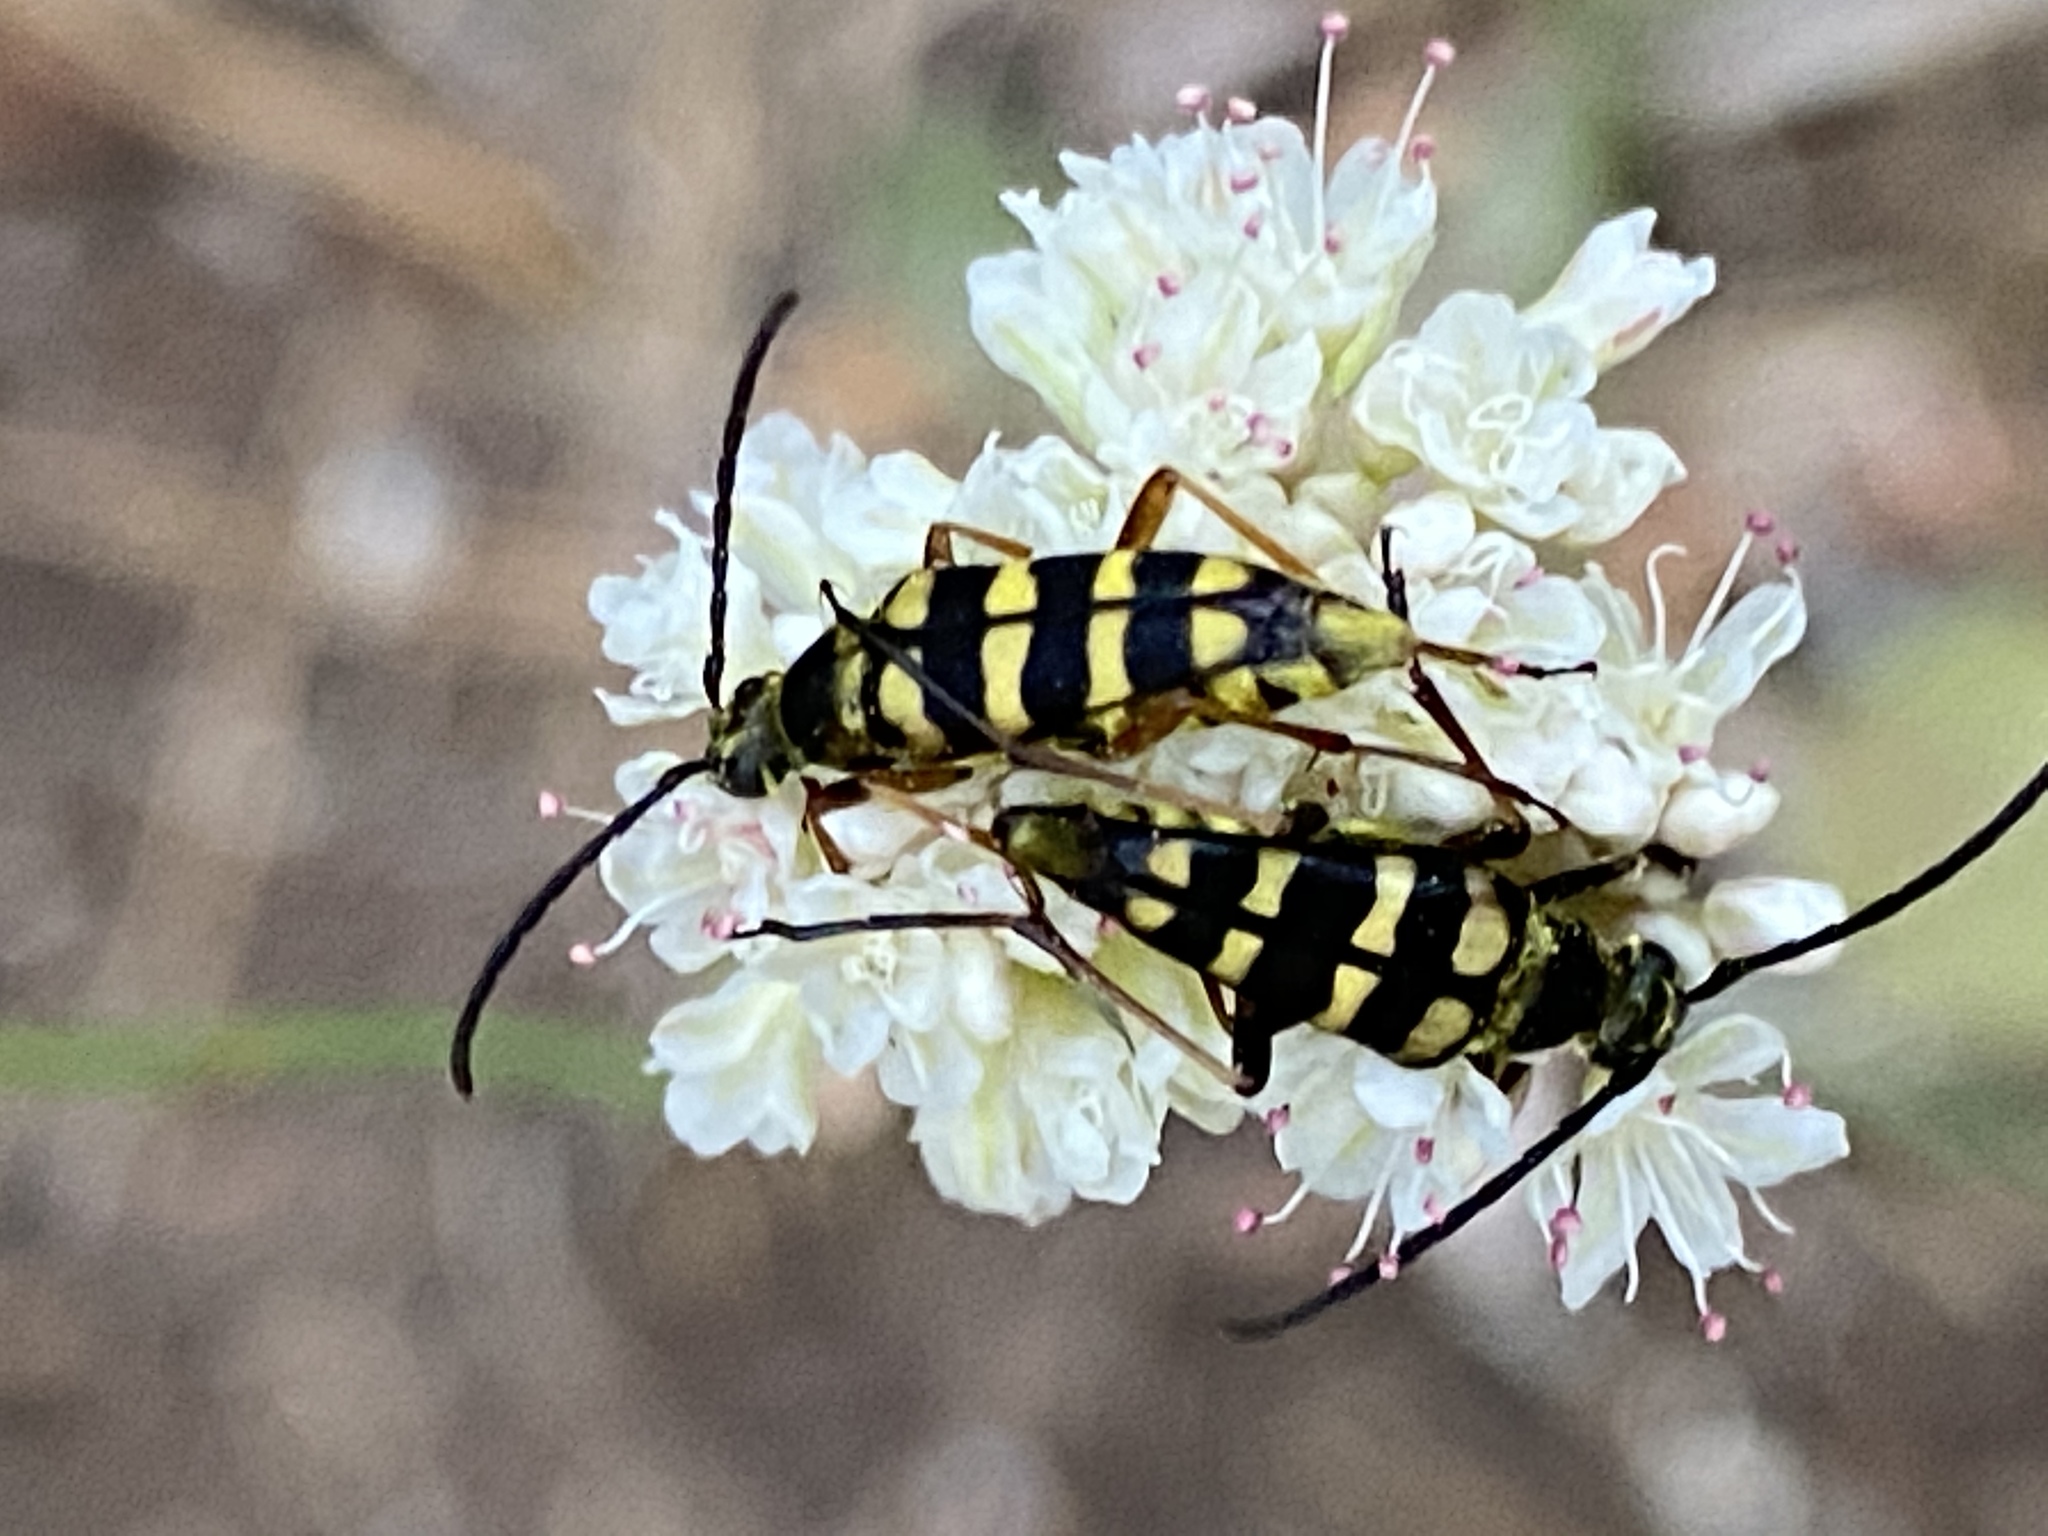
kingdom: Animalia
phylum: Arthropoda
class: Insecta
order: Coleoptera
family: Cerambycidae
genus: Stenostrophia
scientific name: Stenostrophia tribalteata
